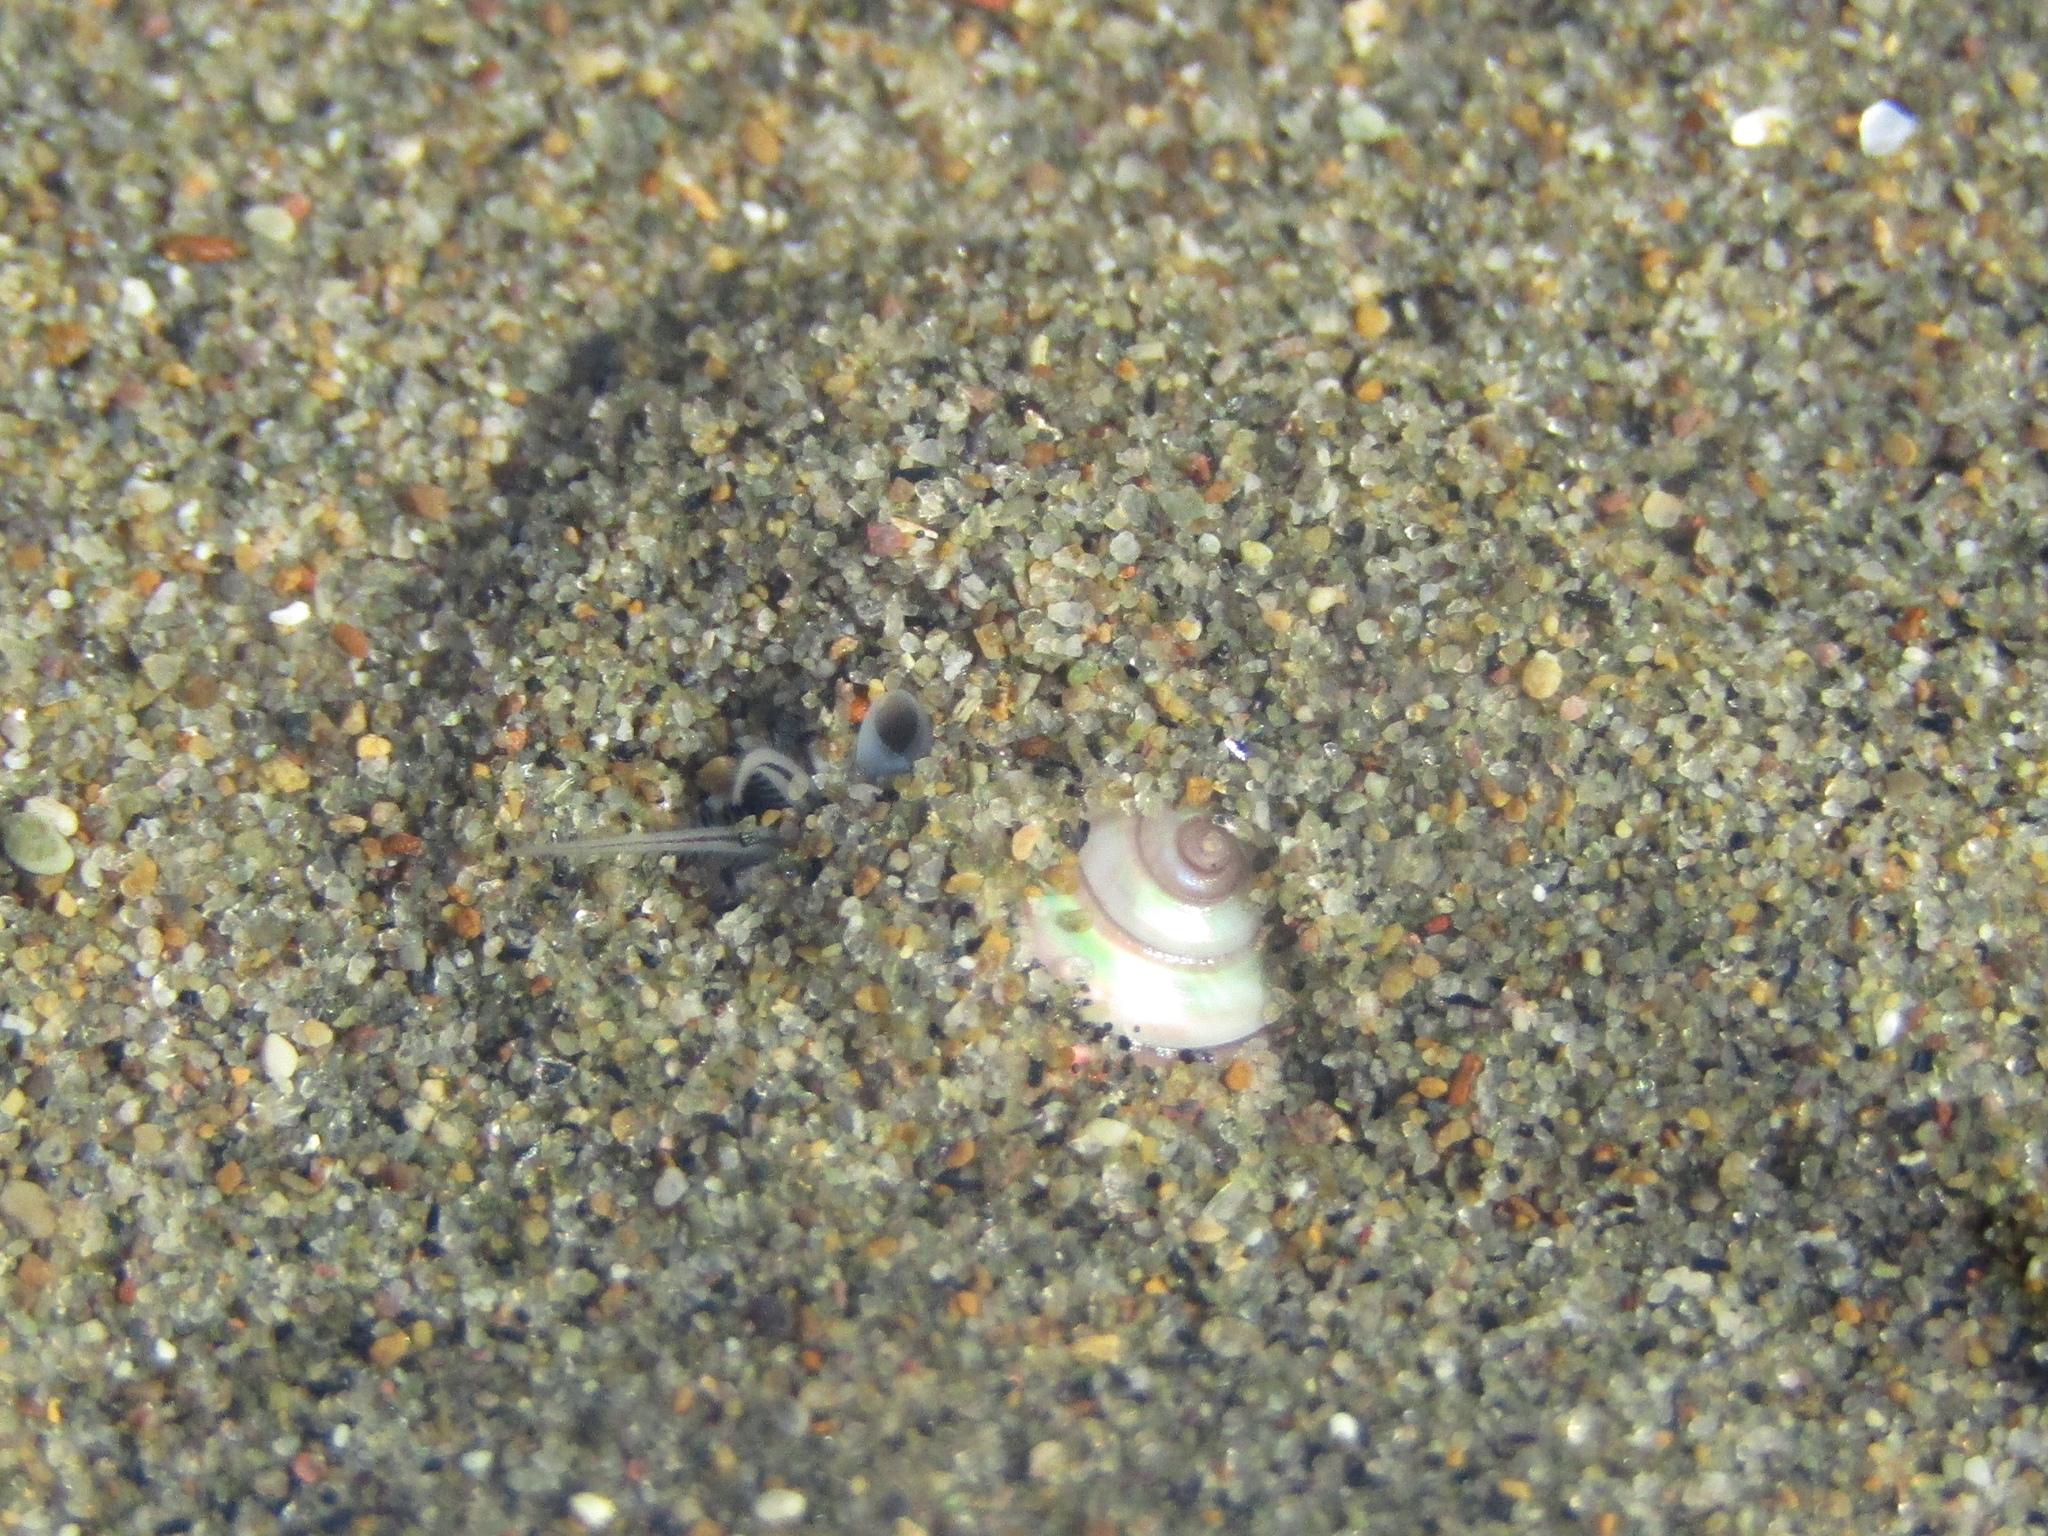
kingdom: Animalia
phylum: Mollusca
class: Gastropoda
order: Trochida
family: Trochidae
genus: Zethalia
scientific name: Zethalia zelandica
